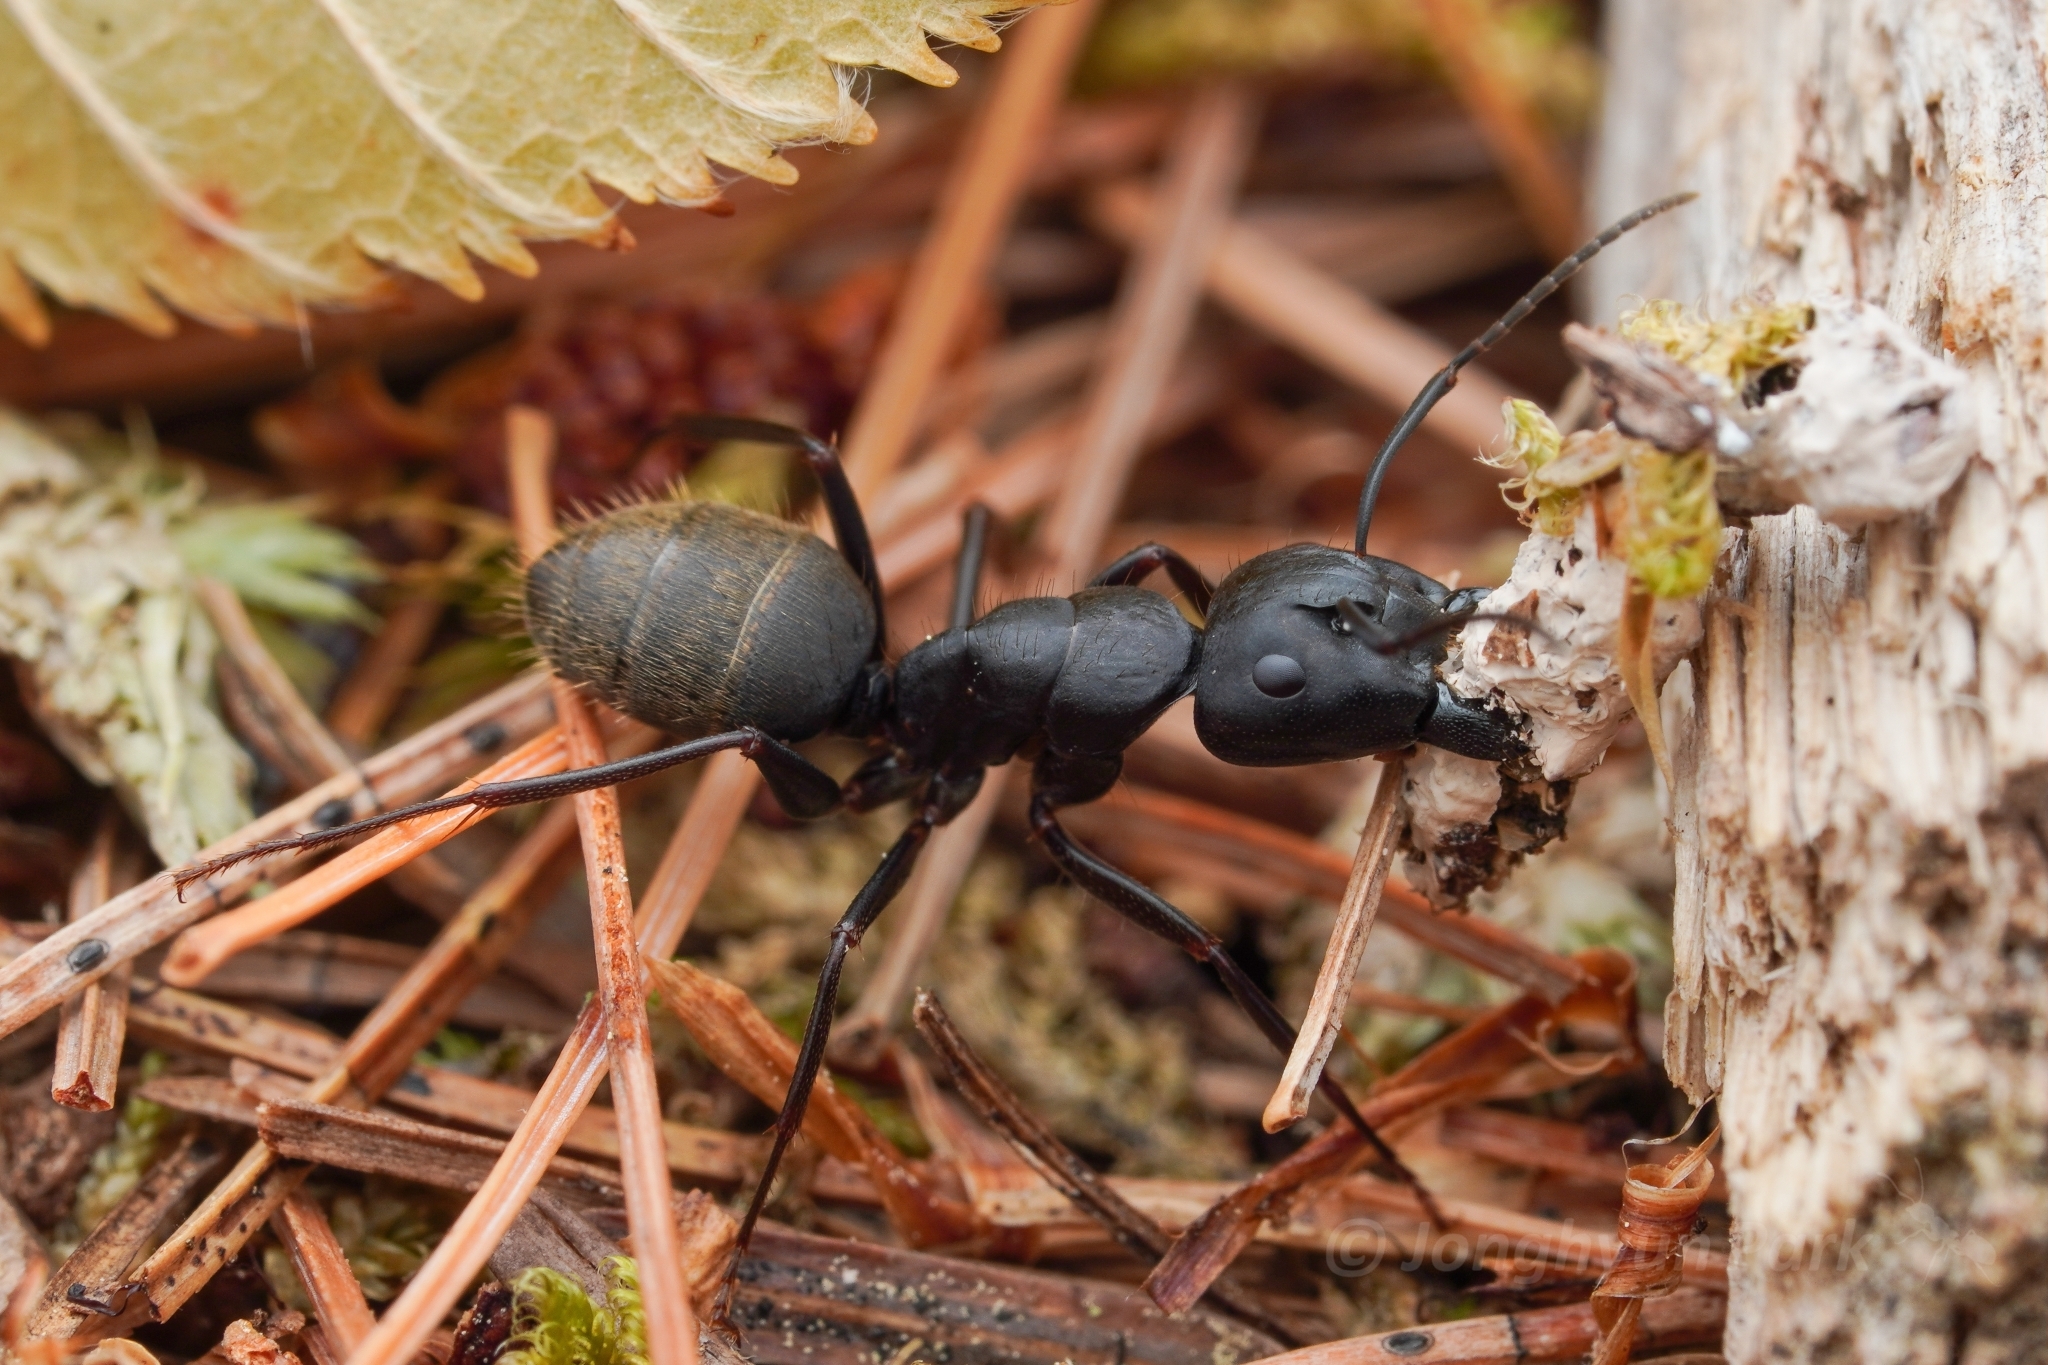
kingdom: Animalia
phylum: Arthropoda
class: Insecta
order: Hymenoptera
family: Formicidae
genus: Camponotus
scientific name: Camponotus pennsylvanicus
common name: Black carpenter ant
